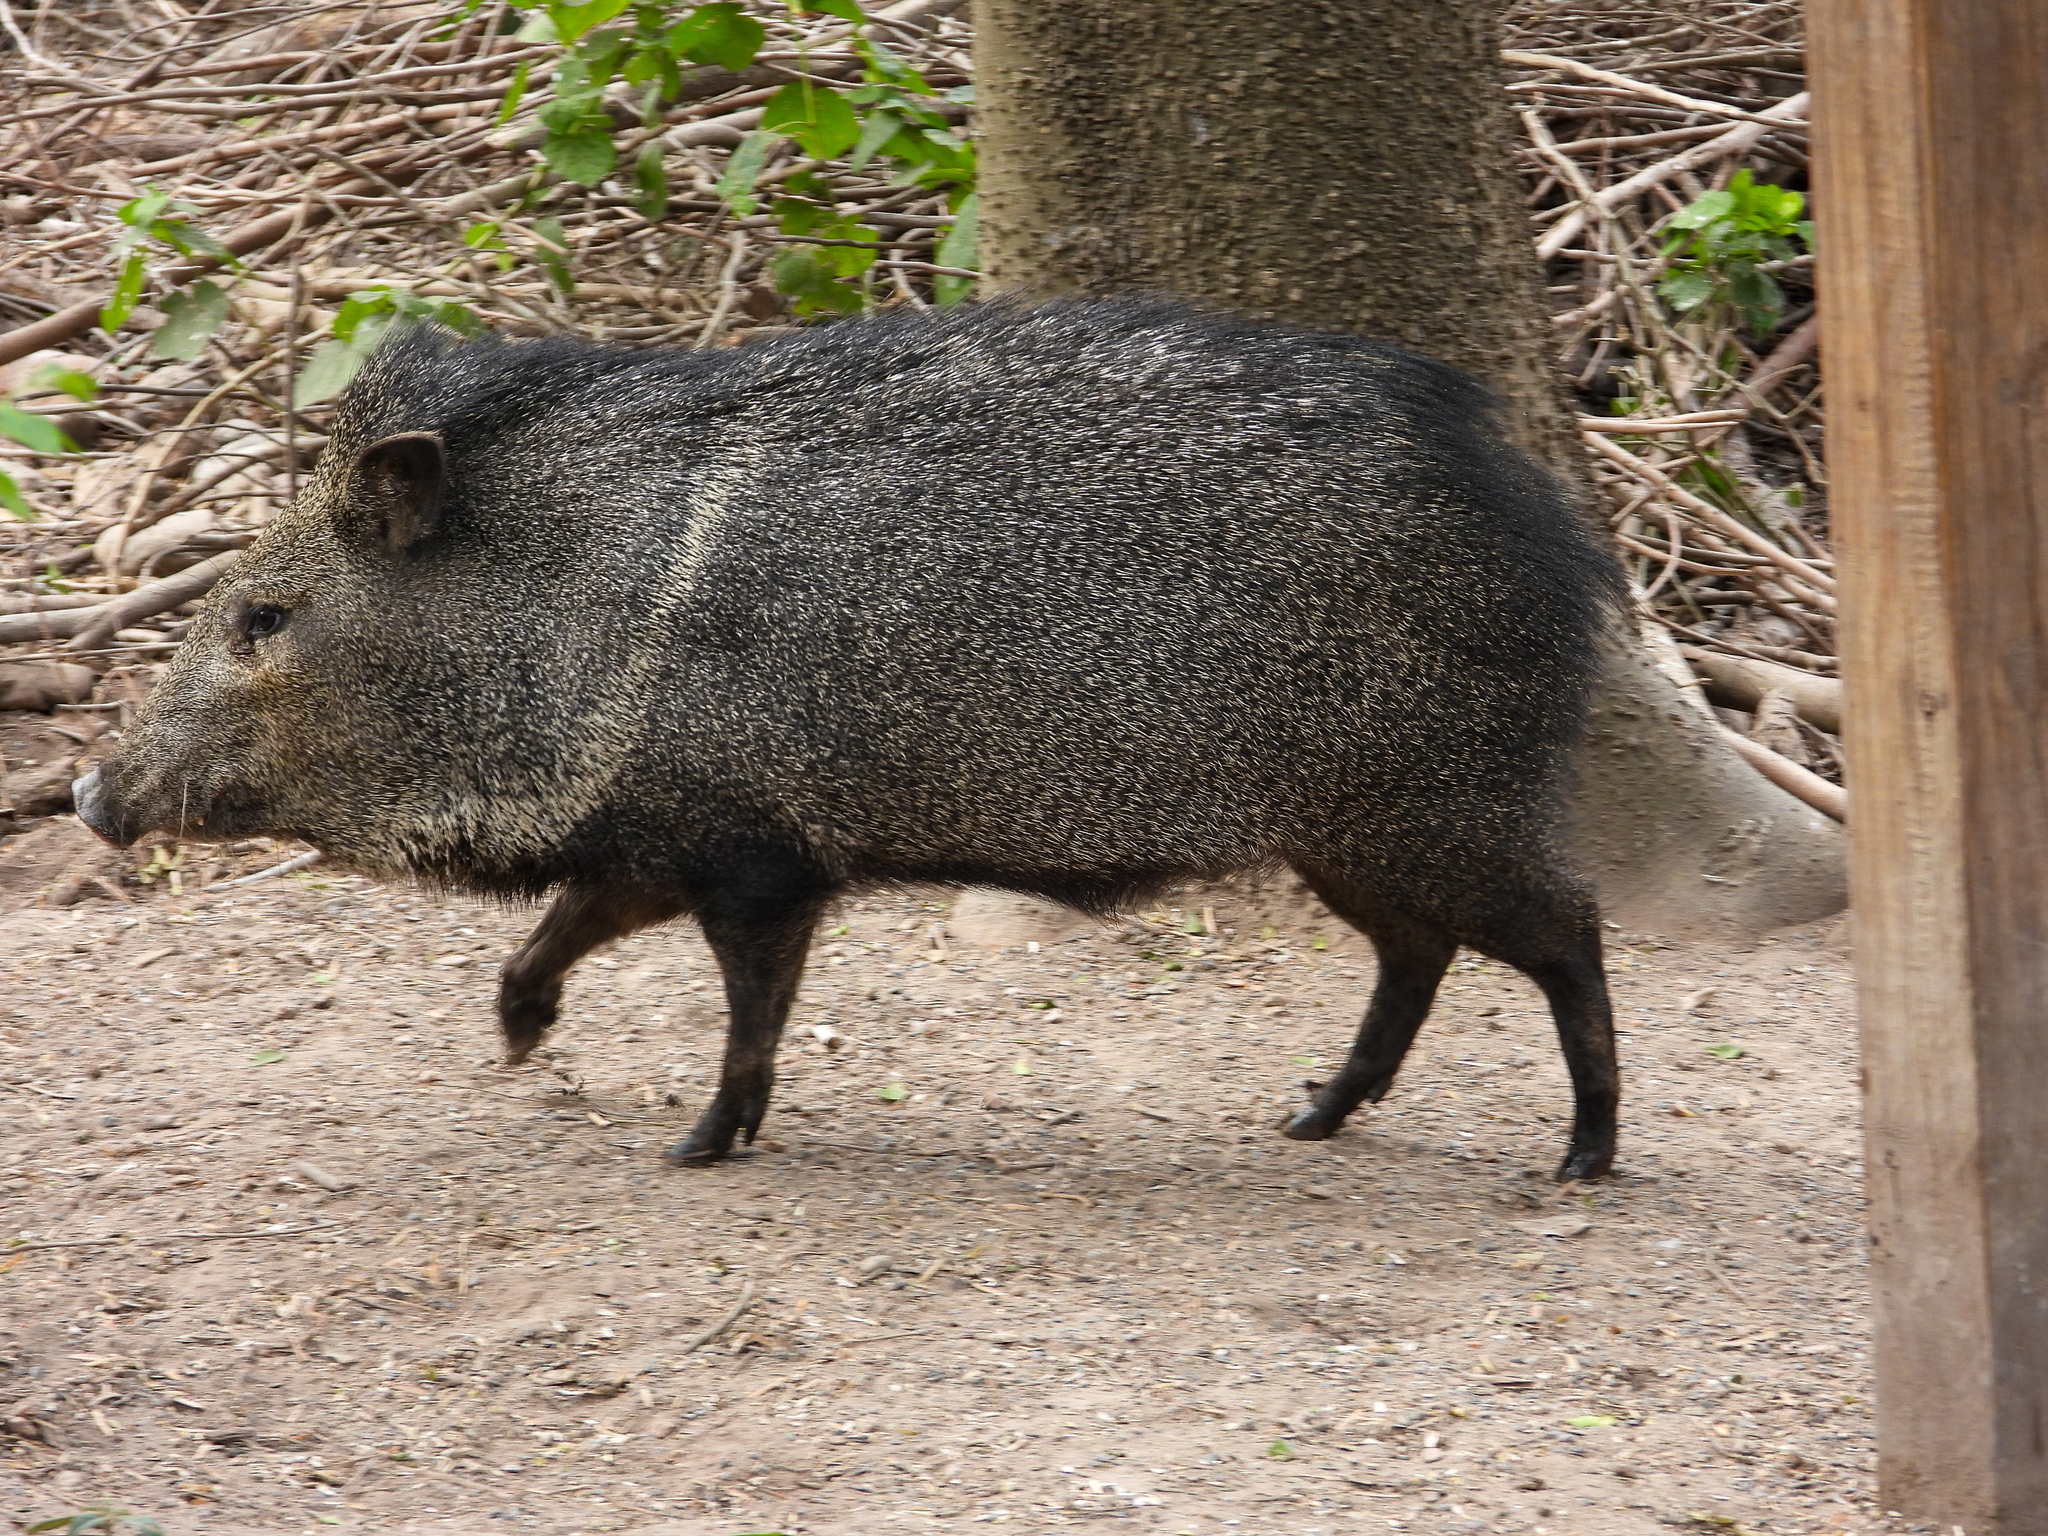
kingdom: Animalia
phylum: Chordata
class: Mammalia
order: Artiodactyla
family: Tayassuidae
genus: Pecari
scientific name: Pecari tajacu
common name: Collared peccary
